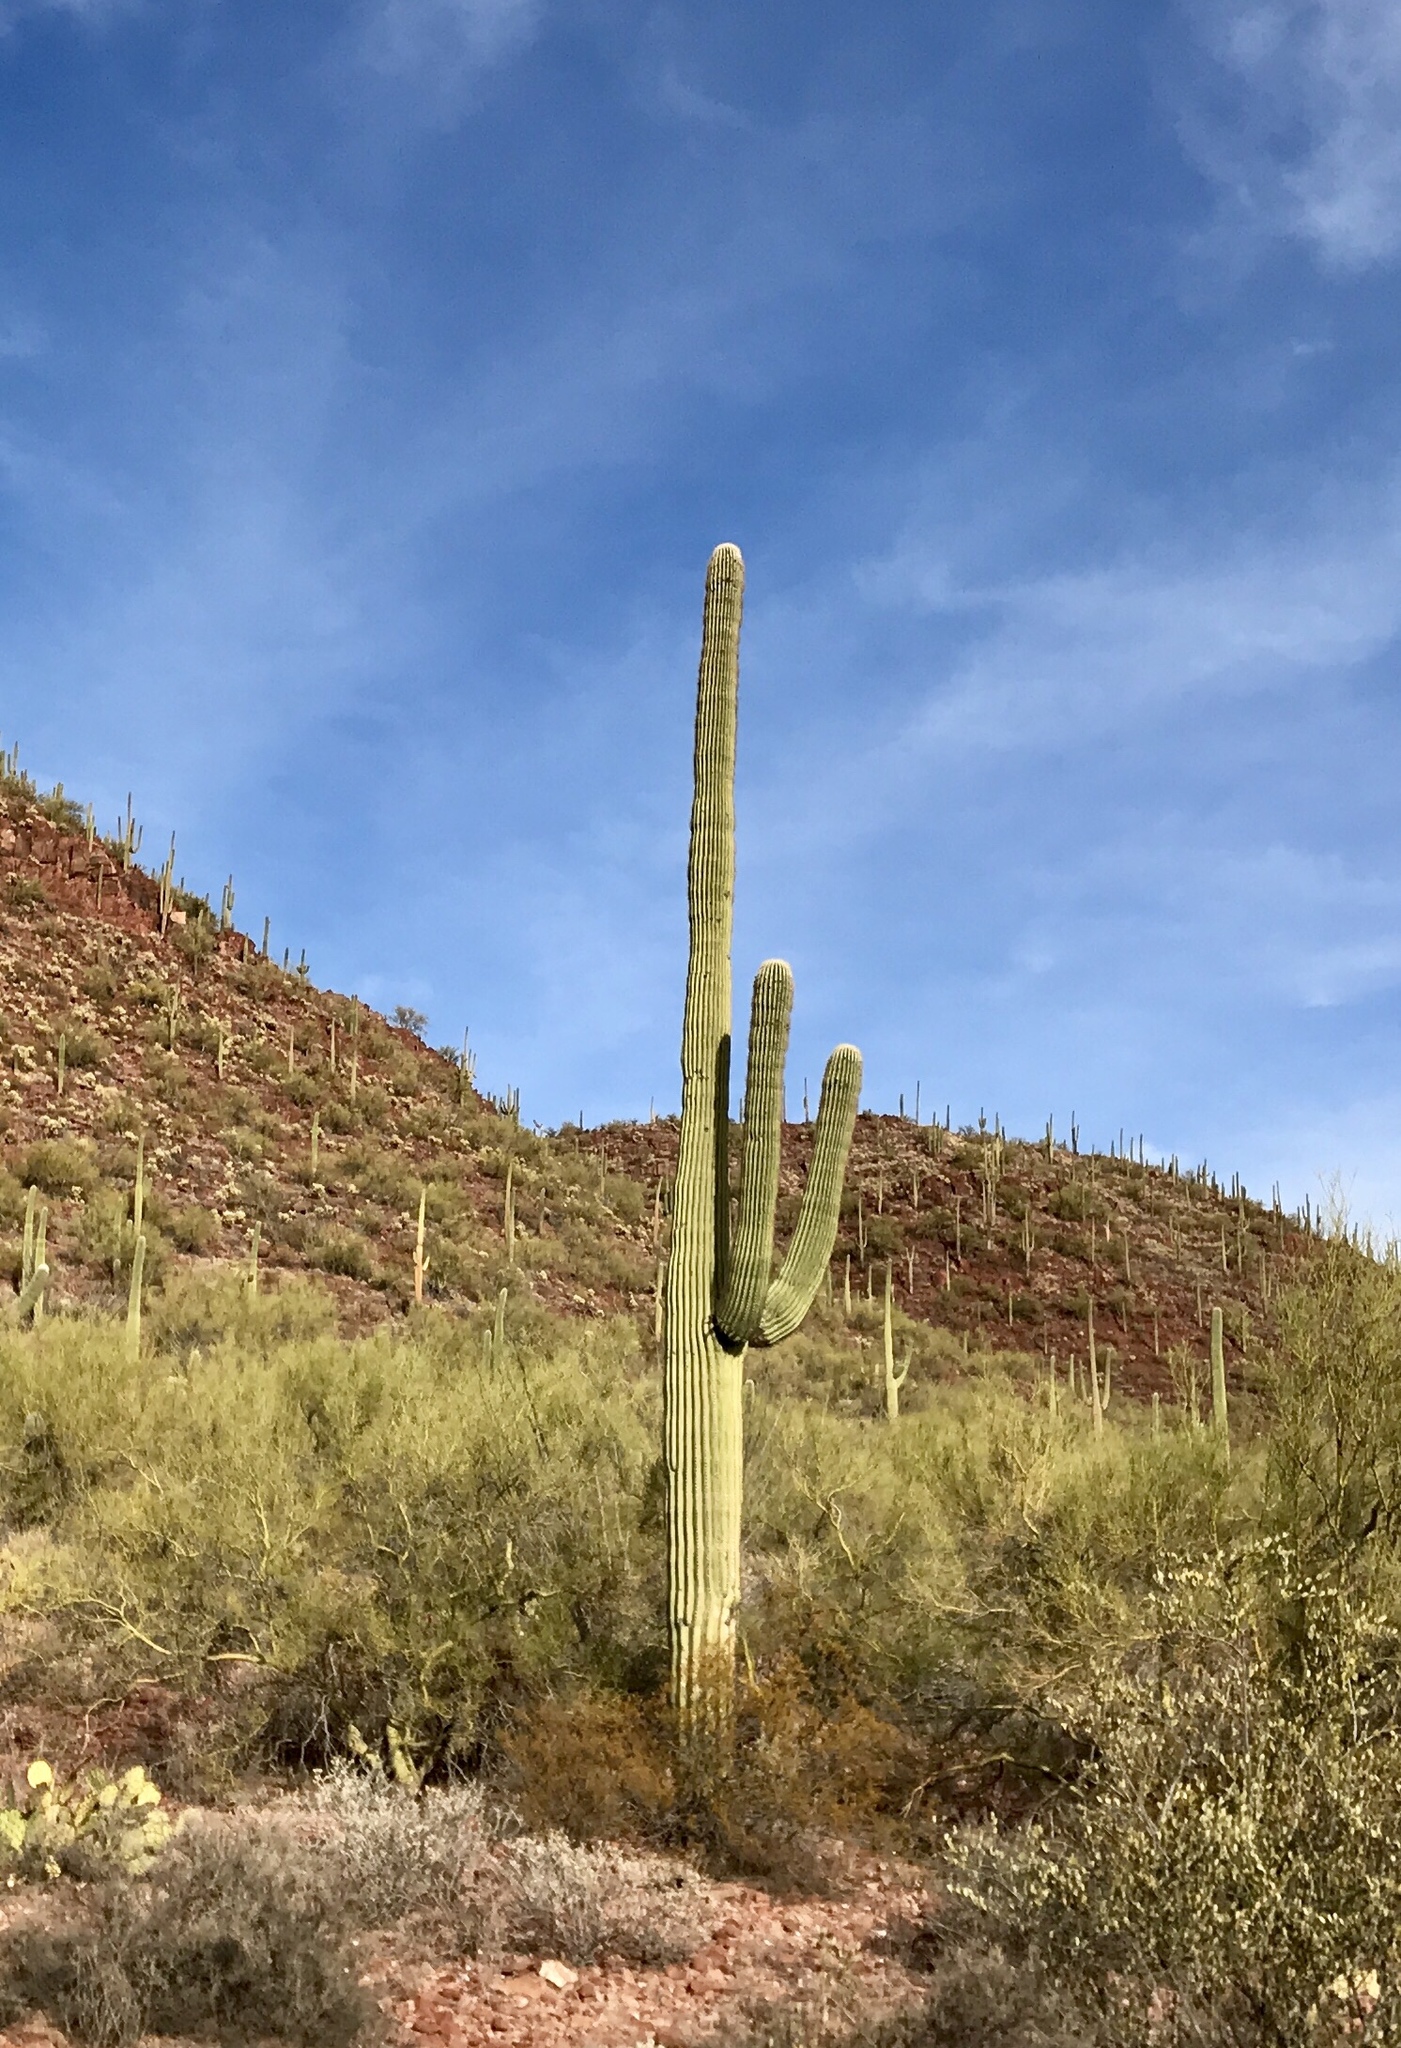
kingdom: Plantae
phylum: Tracheophyta
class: Magnoliopsida
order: Caryophyllales
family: Cactaceae
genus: Carnegiea
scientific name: Carnegiea gigantea
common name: Saguaro
